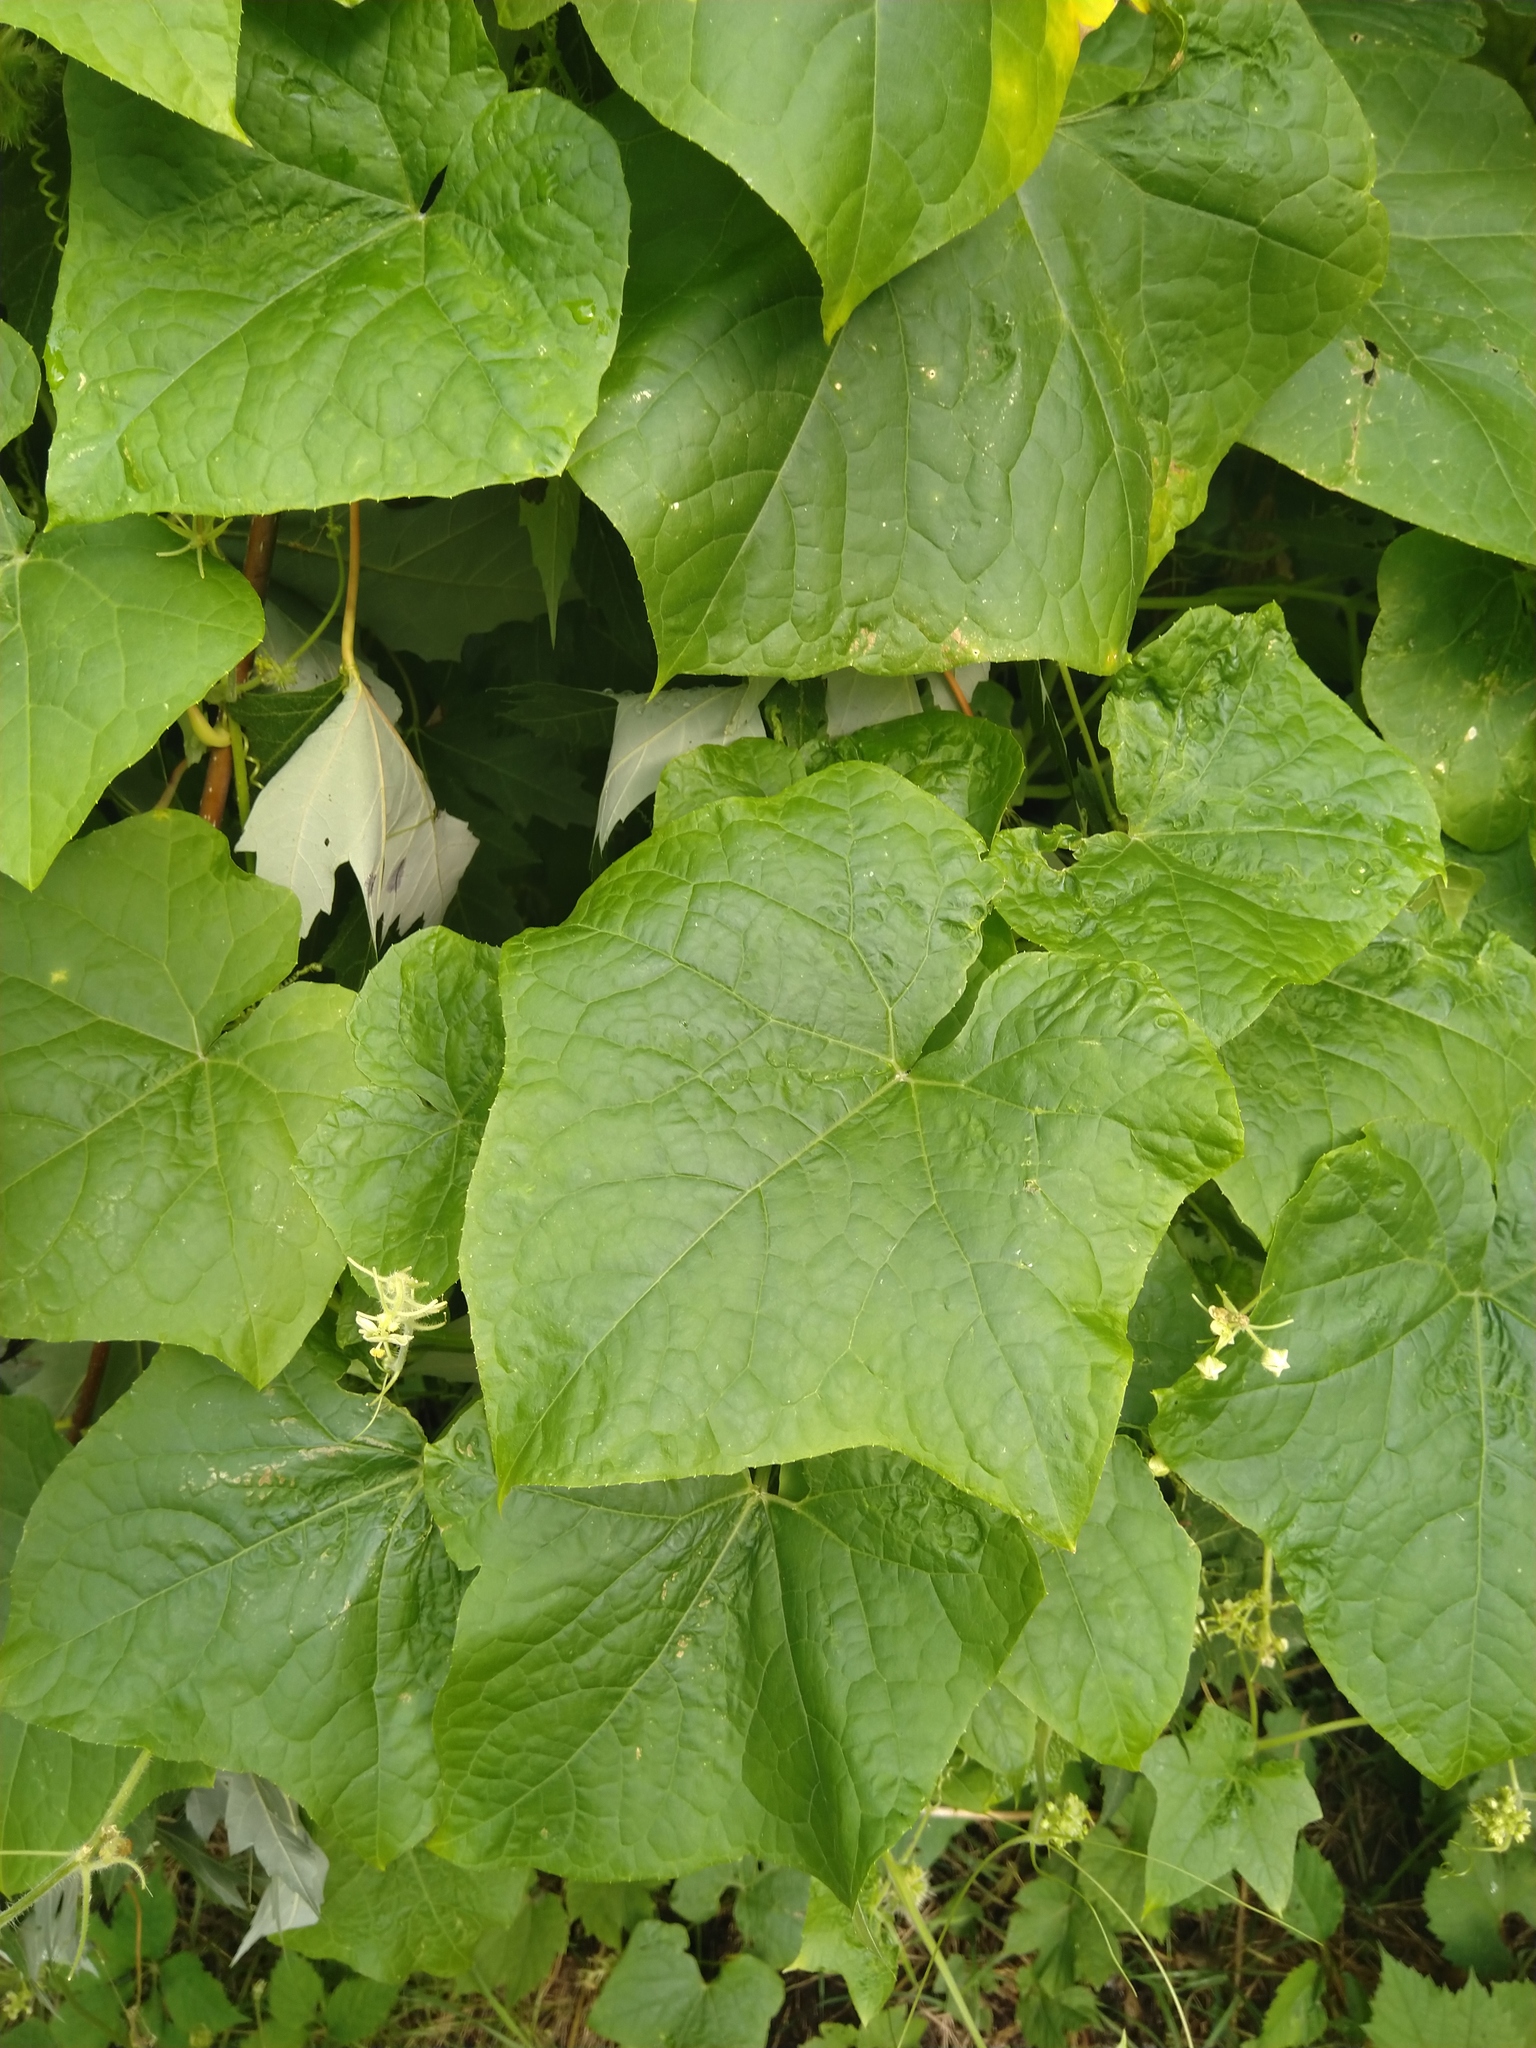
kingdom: Plantae
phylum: Tracheophyta
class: Magnoliopsida
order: Cucurbitales
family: Cucurbitaceae
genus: Sicyos
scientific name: Sicyos angulatus
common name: Angled burr cucumber
